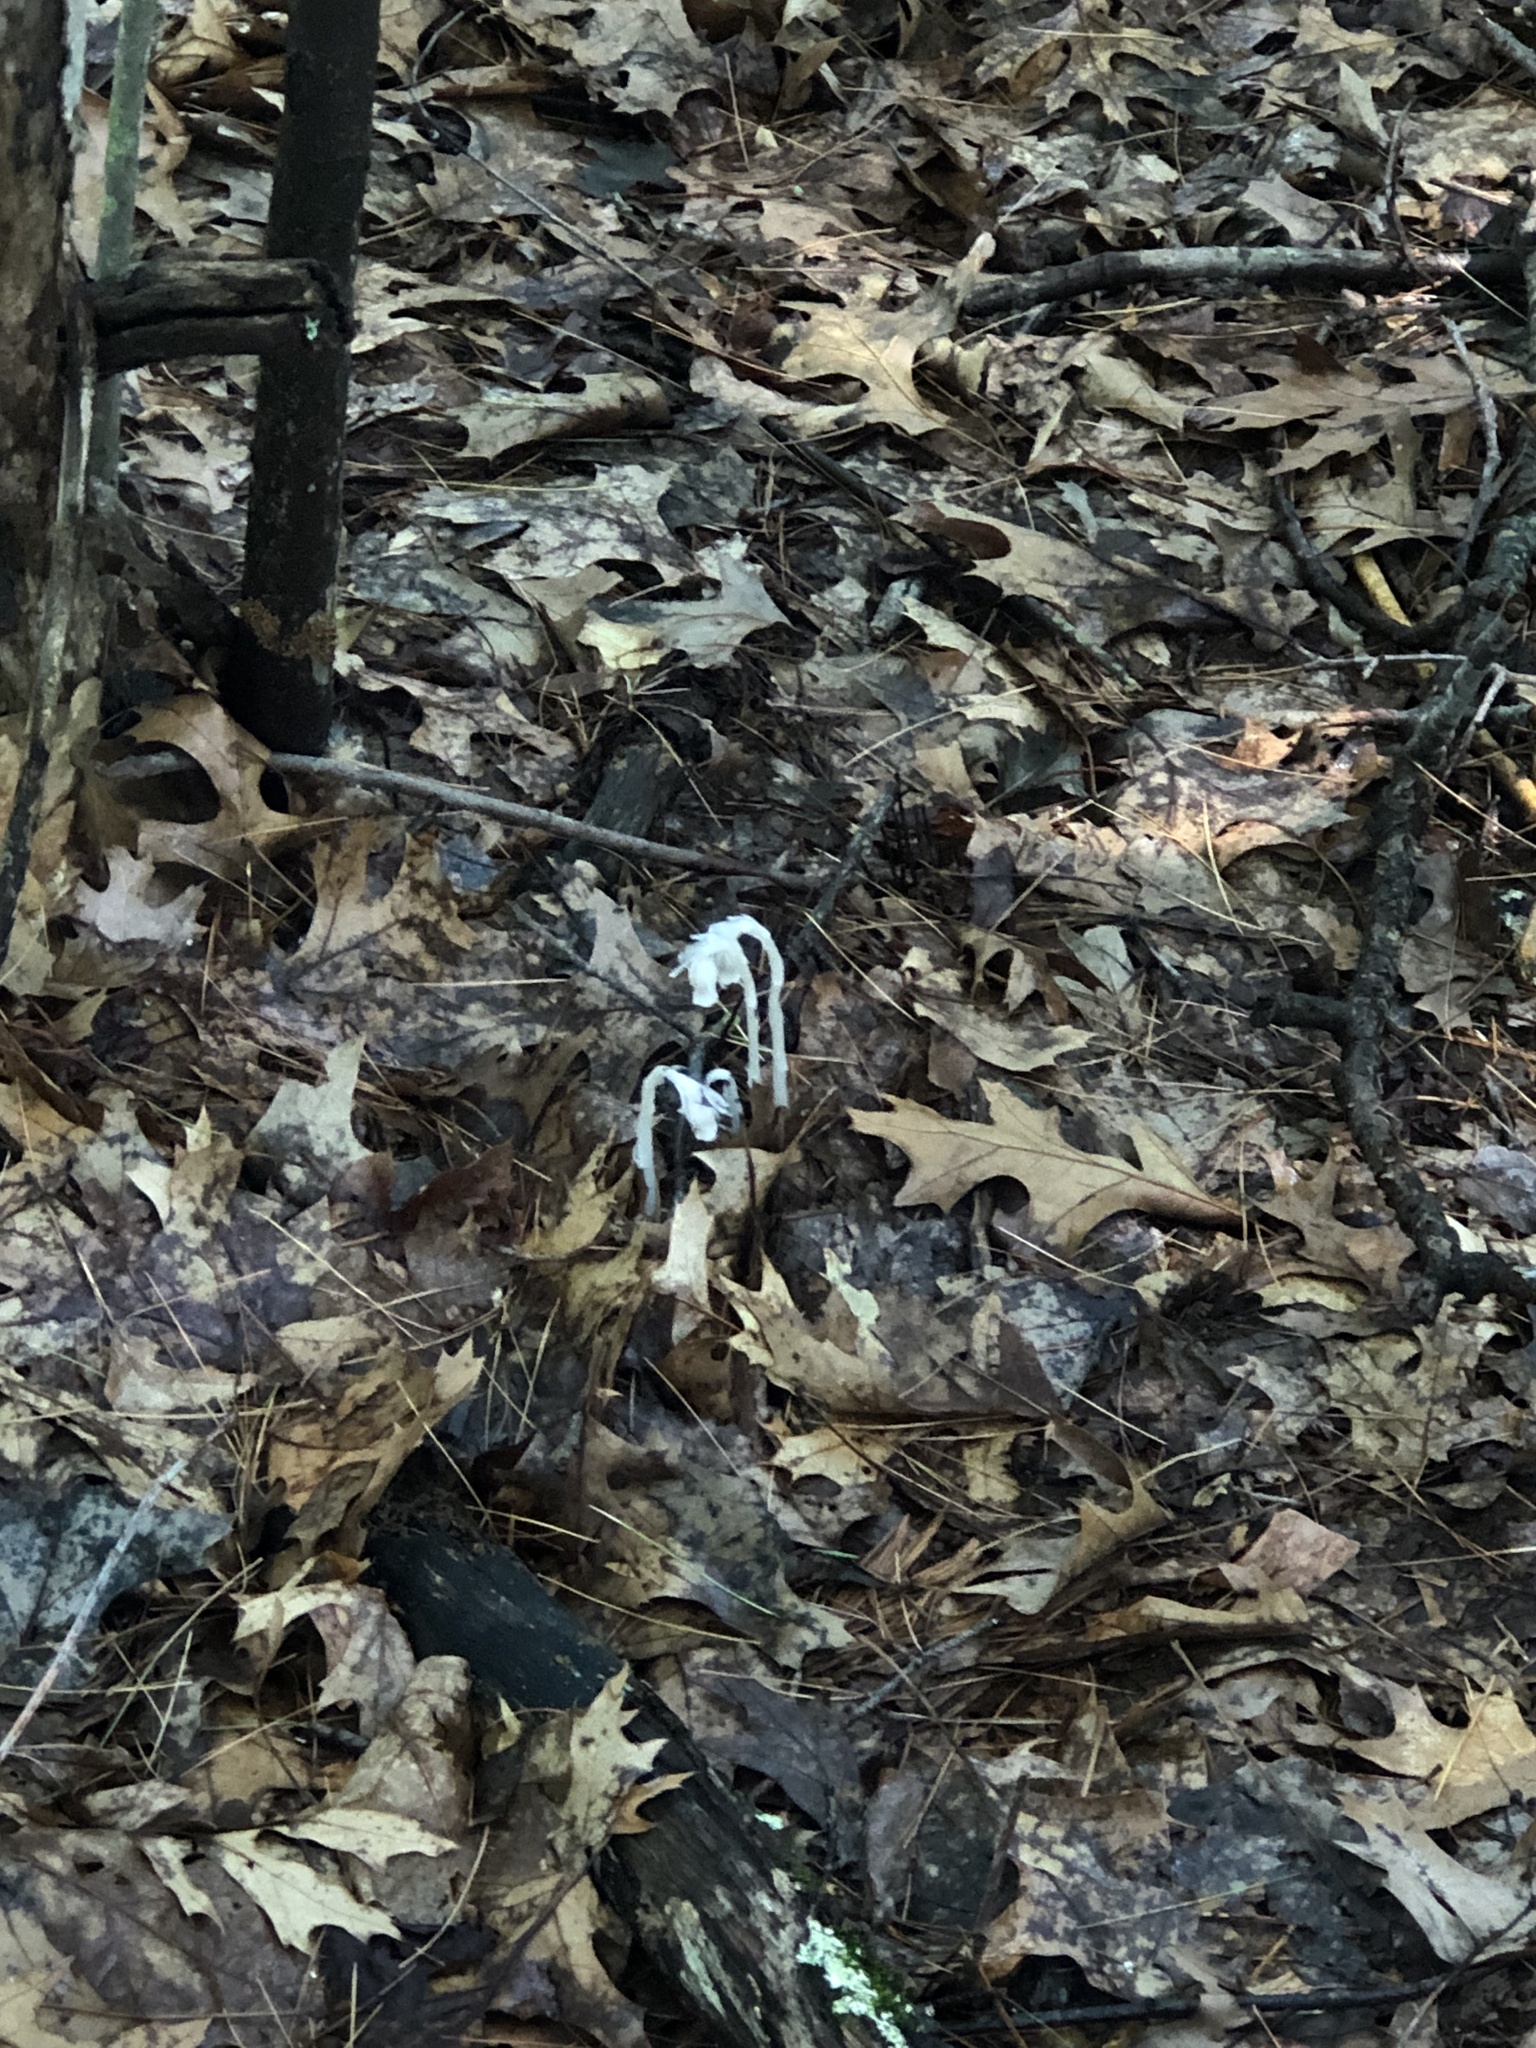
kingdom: Plantae
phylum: Tracheophyta
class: Magnoliopsida
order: Ericales
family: Ericaceae
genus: Monotropa
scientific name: Monotropa uniflora
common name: Convulsion root
